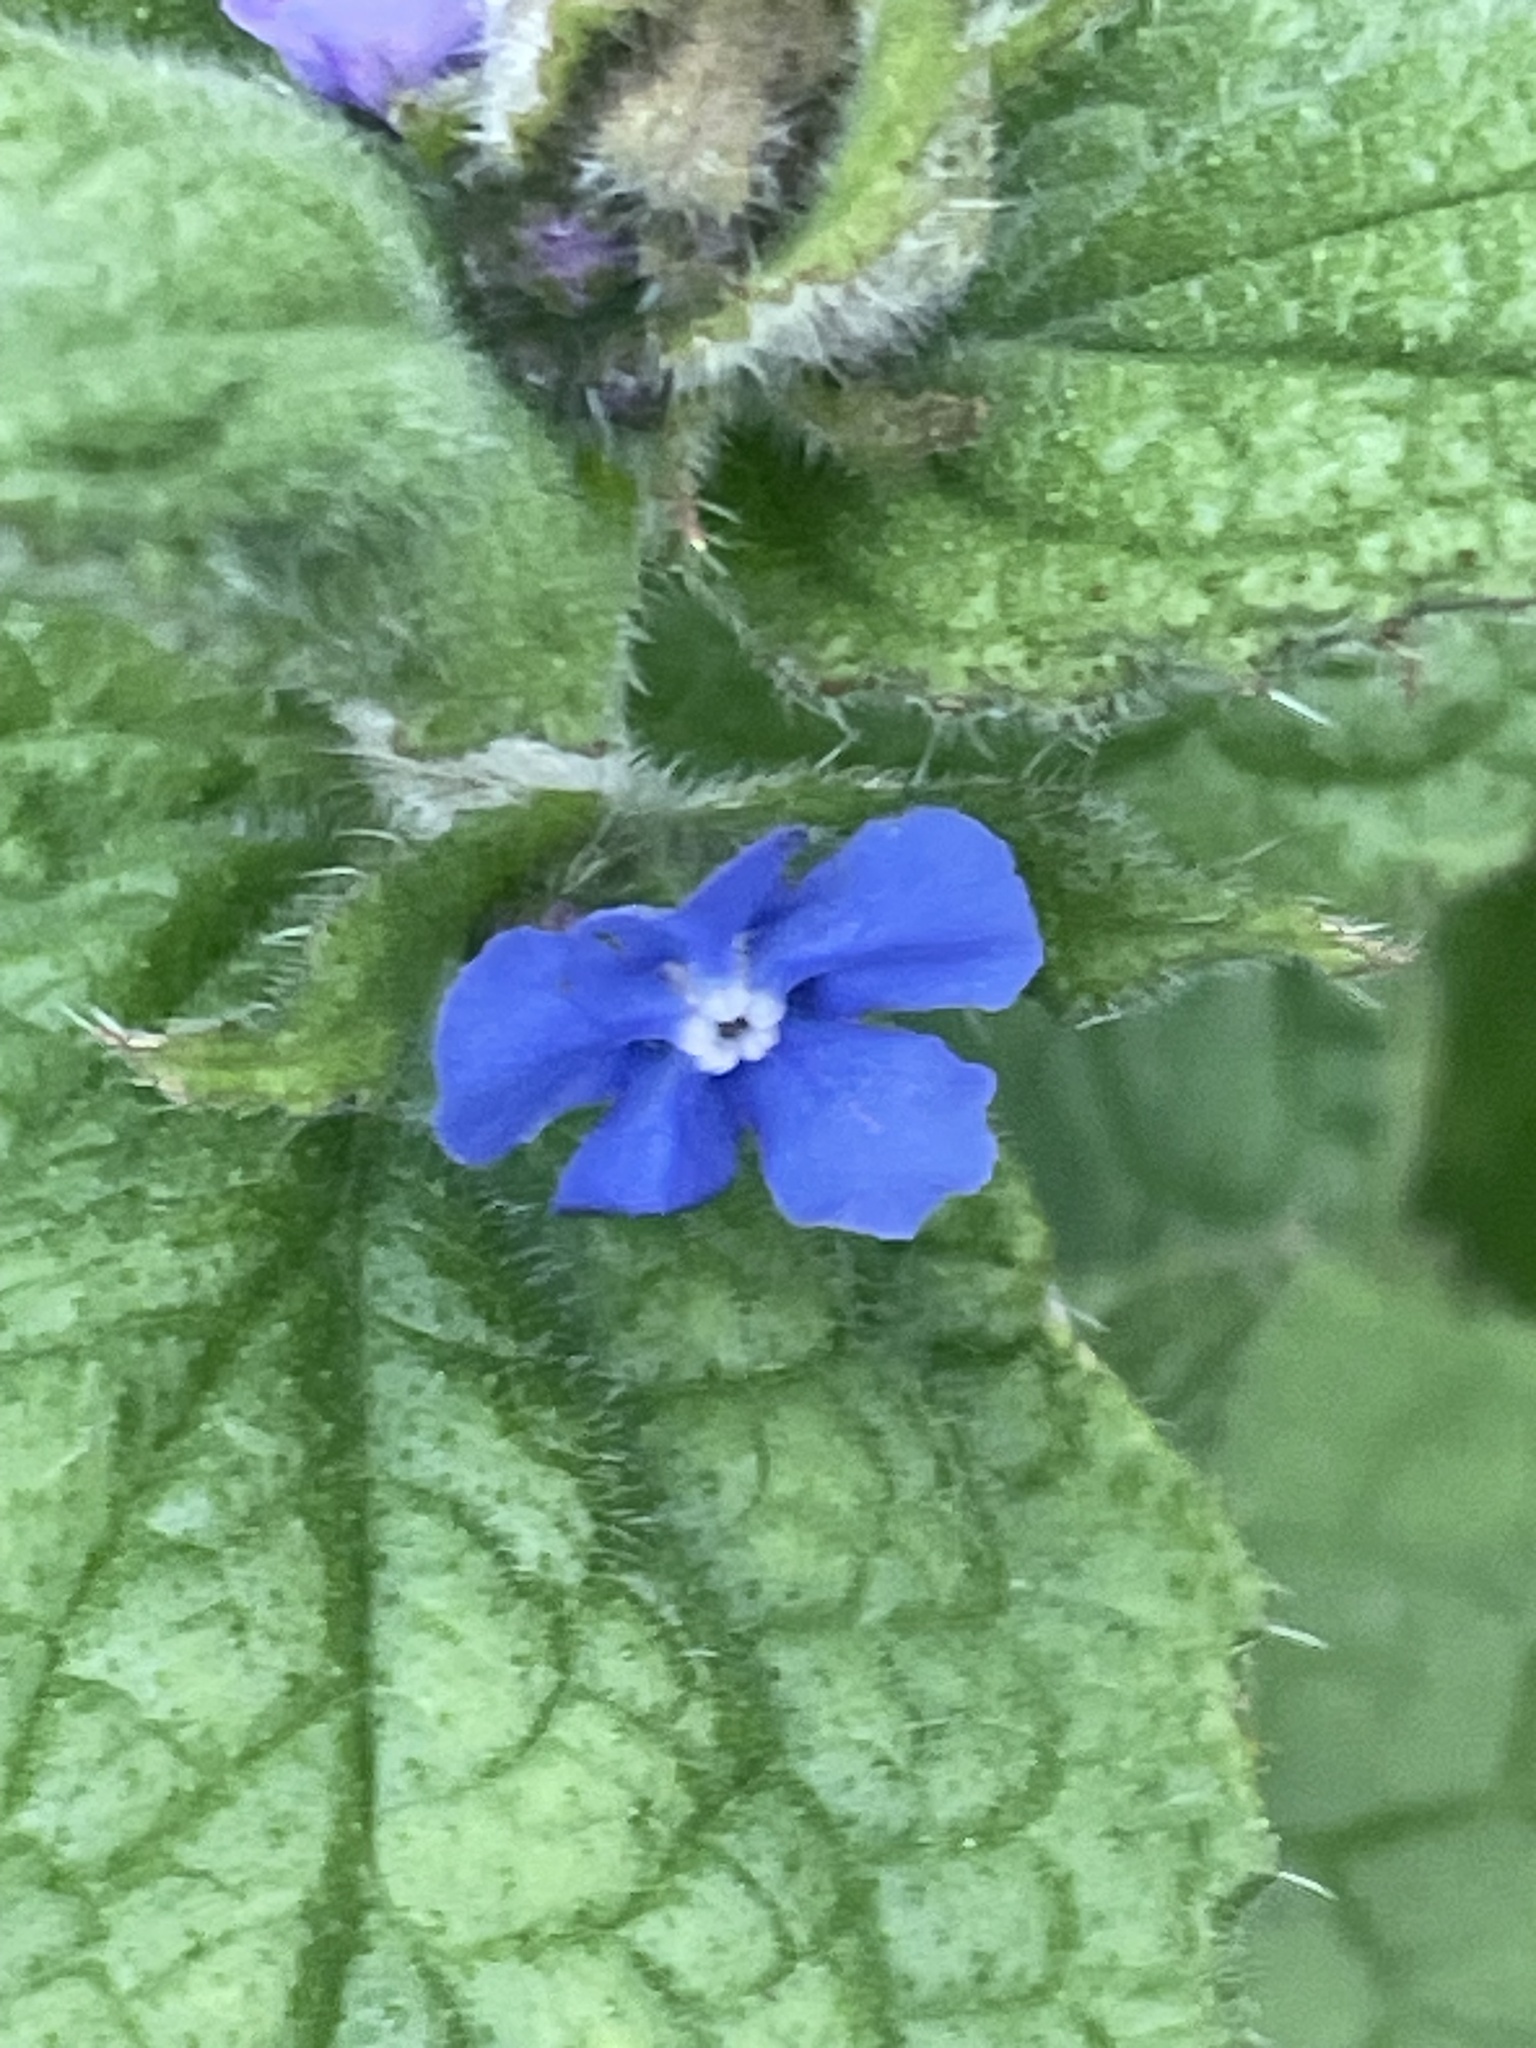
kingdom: Plantae
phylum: Tracheophyta
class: Magnoliopsida
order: Boraginales
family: Boraginaceae
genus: Pentaglottis
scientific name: Pentaglottis sempervirens
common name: Green alkanet
